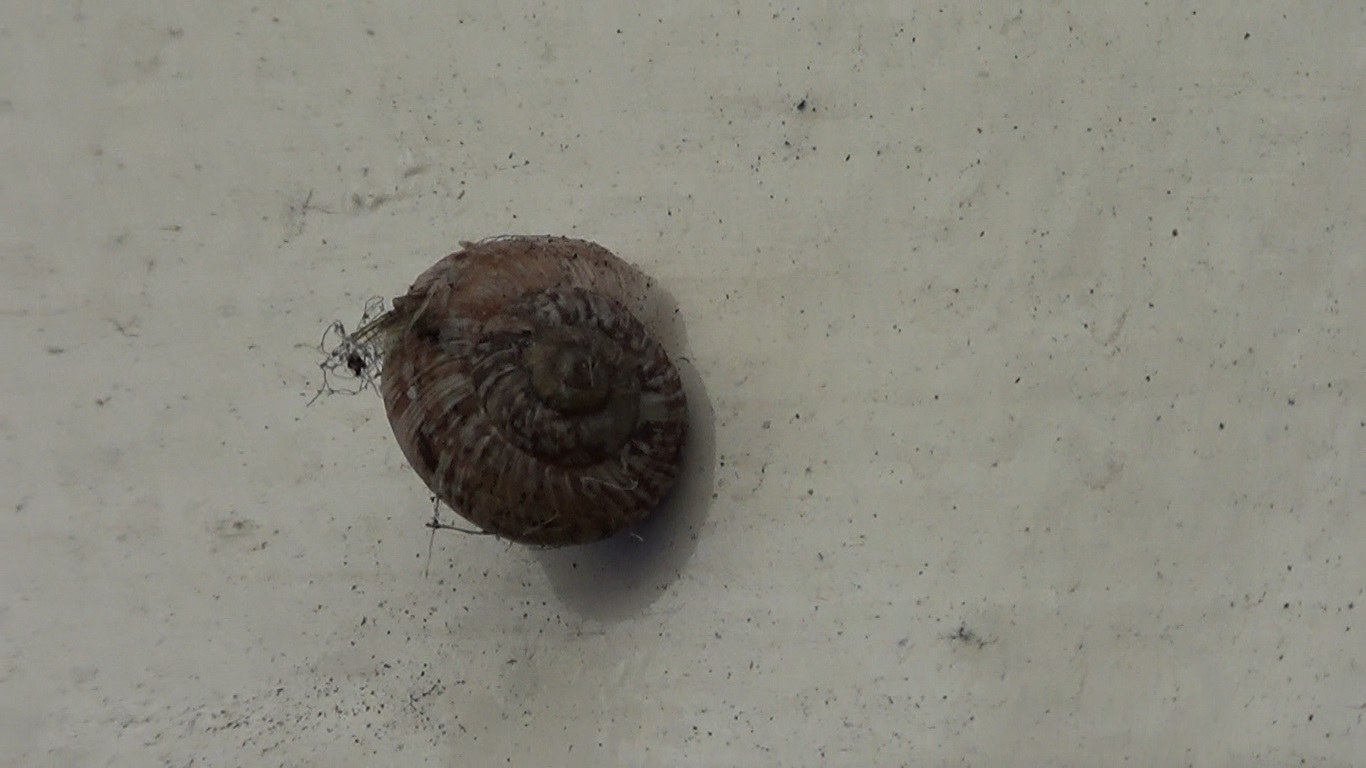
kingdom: Animalia
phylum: Mollusca
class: Gastropoda
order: Stylommatophora
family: Geomitridae
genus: Xerotricha
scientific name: Xerotricha conspurcata
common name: Snail
